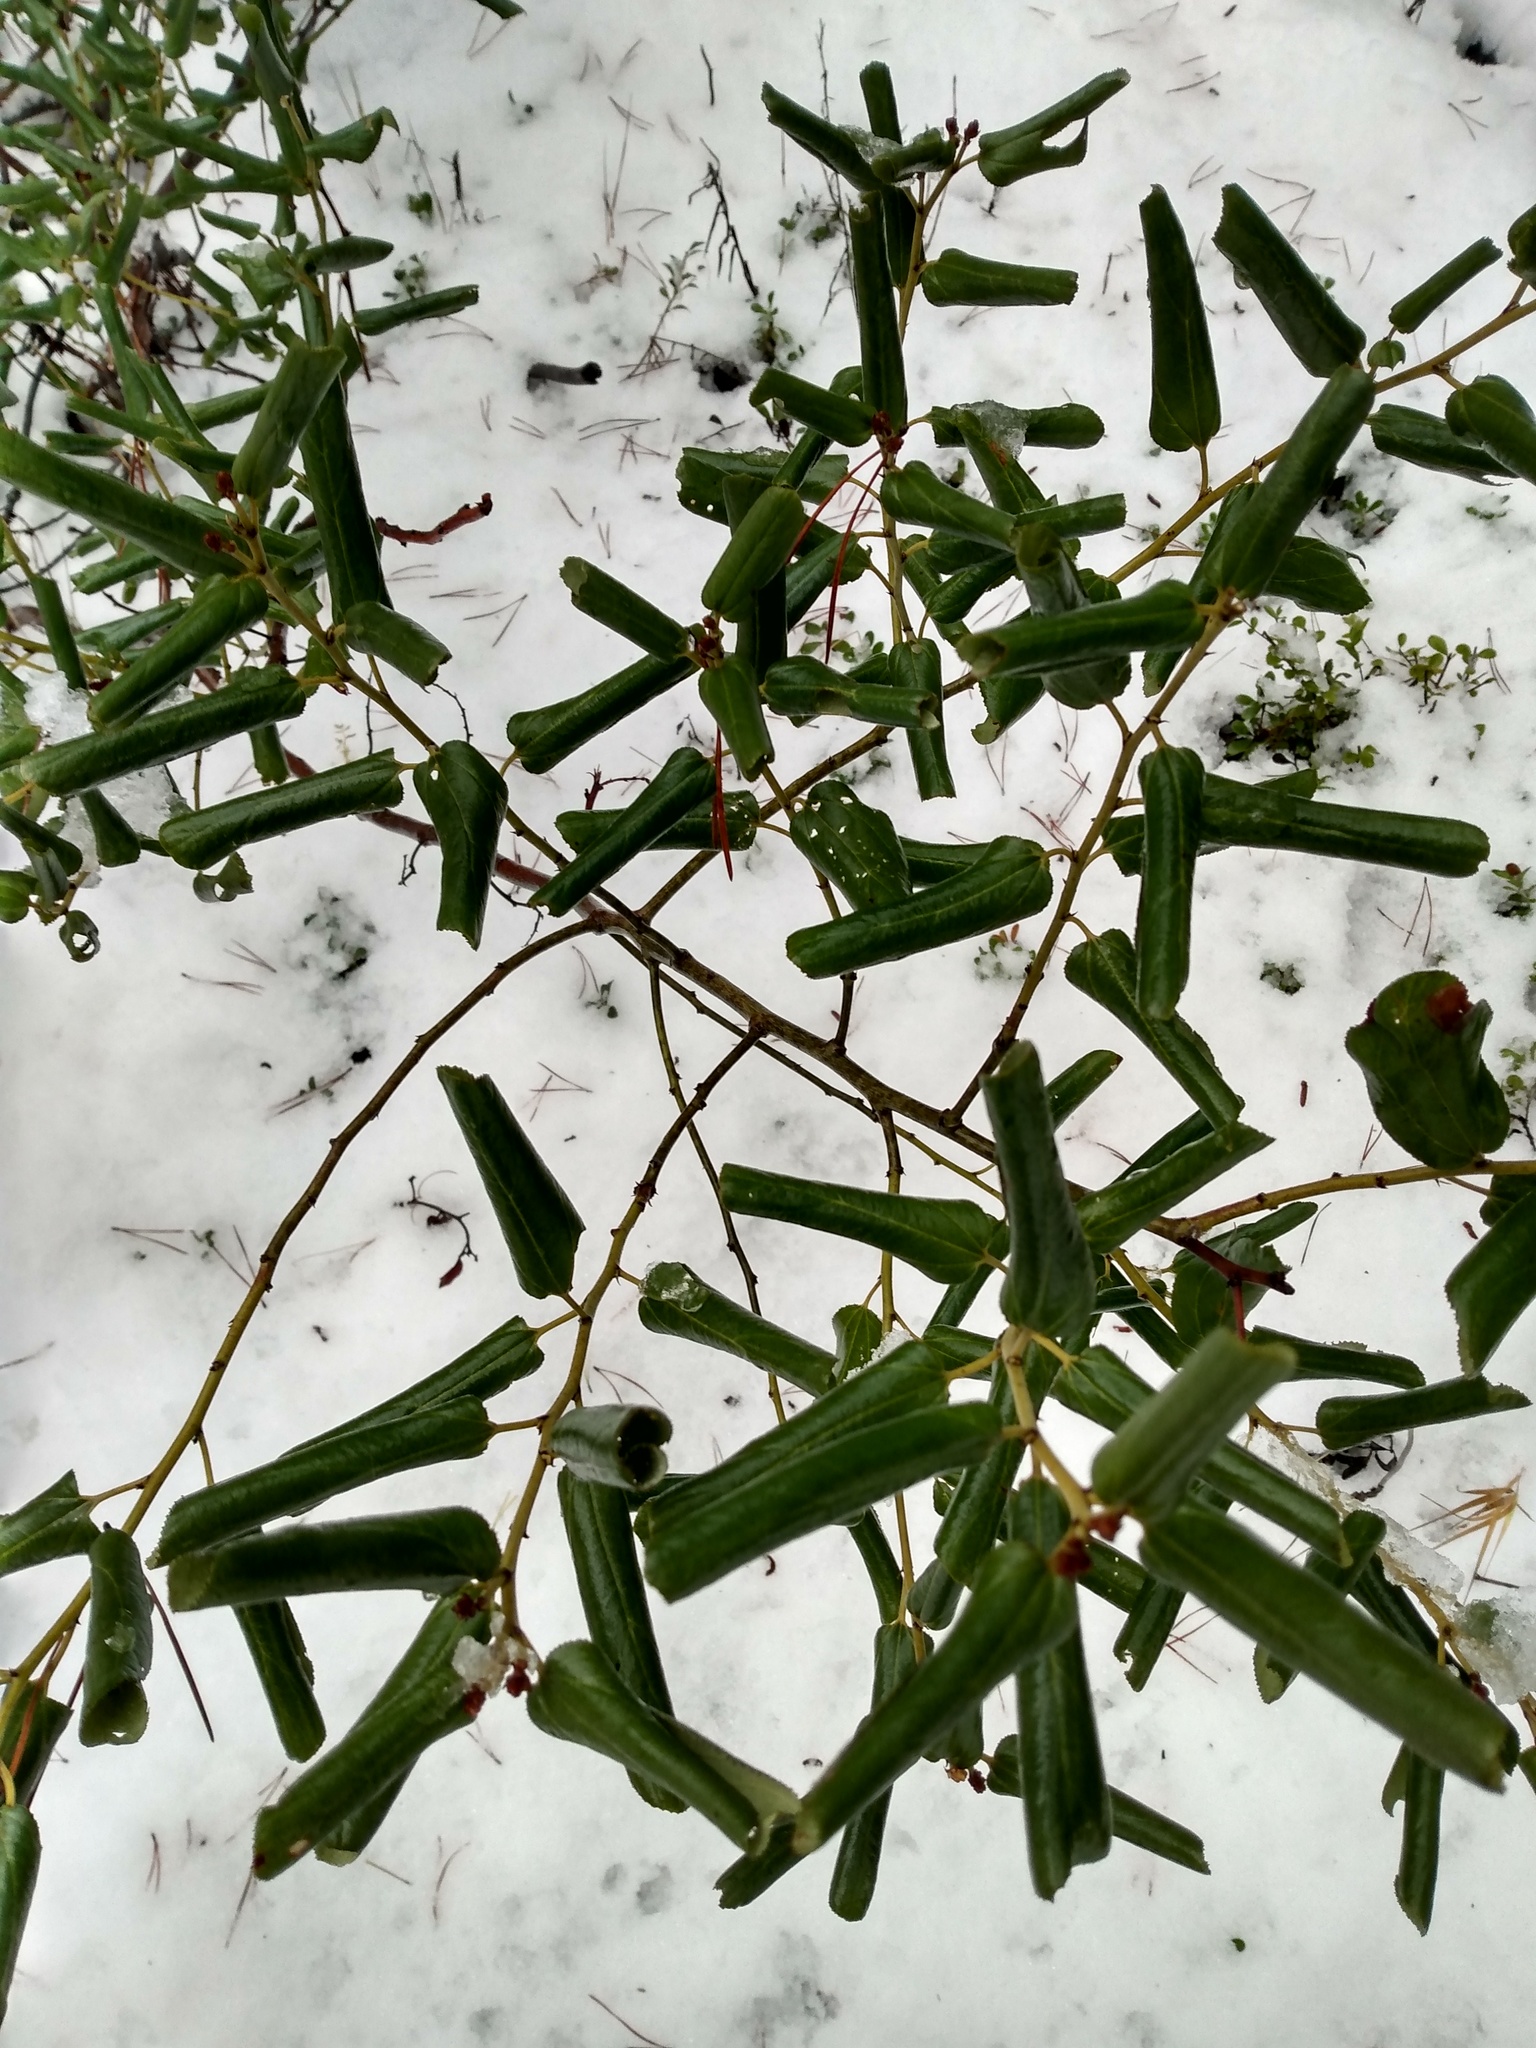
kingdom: Plantae
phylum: Tracheophyta
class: Magnoliopsida
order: Rosales
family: Rhamnaceae
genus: Ceanothus
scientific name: Ceanothus velutinus
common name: Snowbrush
